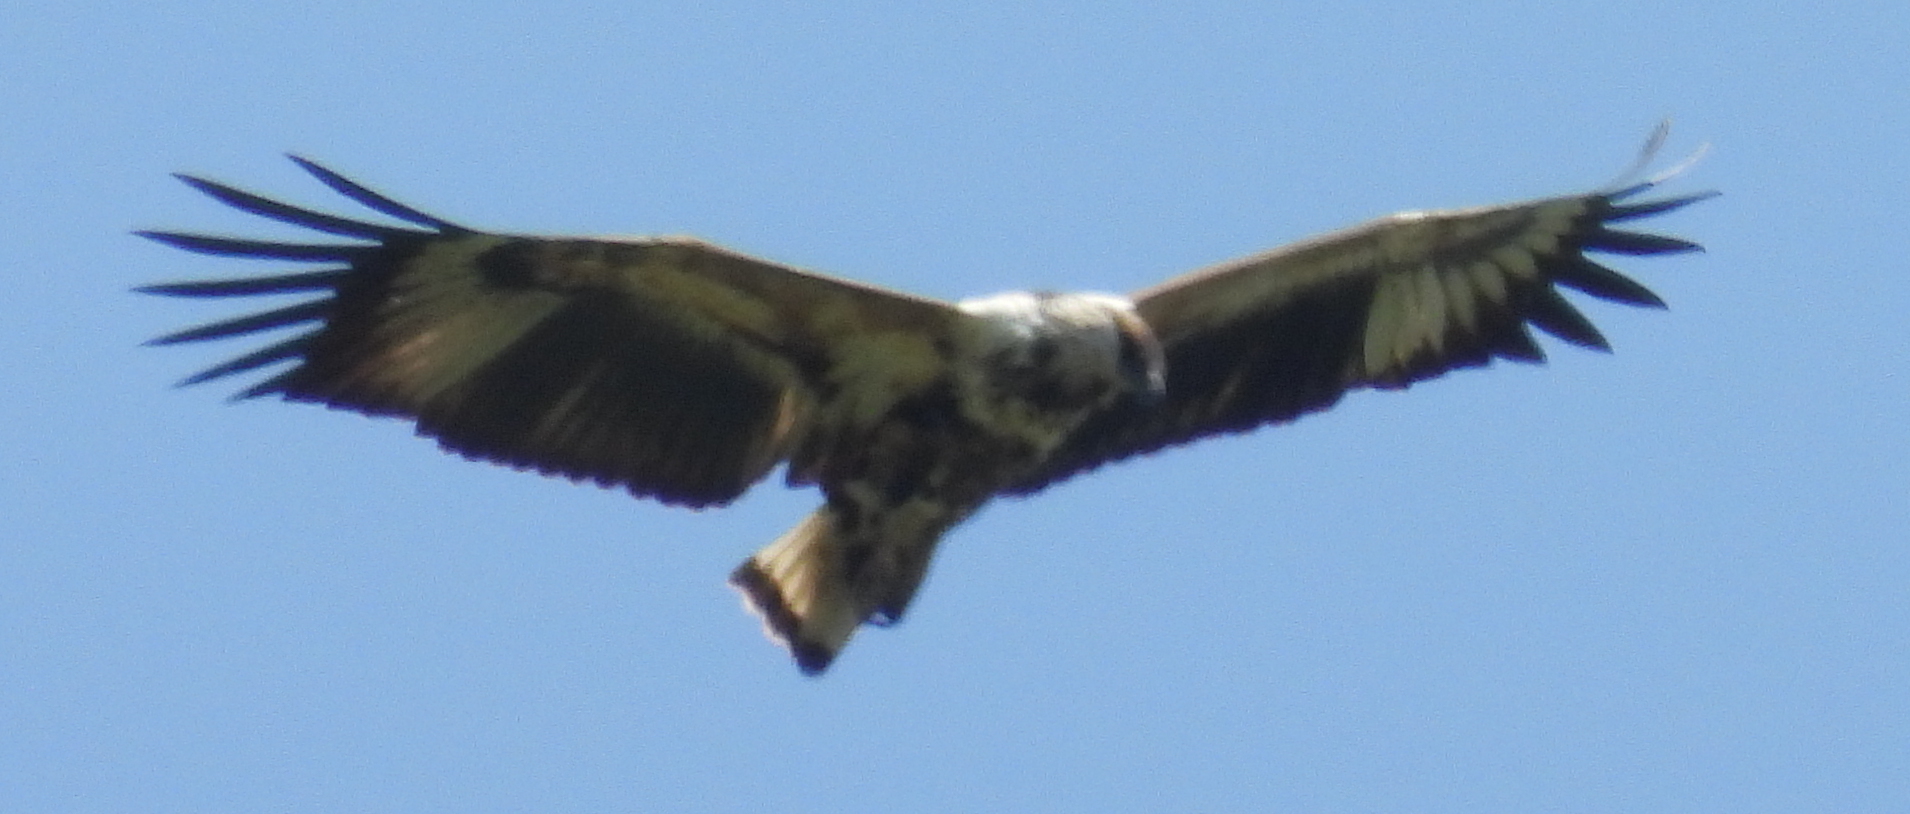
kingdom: Animalia
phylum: Chordata
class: Aves
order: Accipitriformes
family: Accipitridae
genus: Haliaeetus
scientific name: Haliaeetus vocifer
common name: African fish eagle
